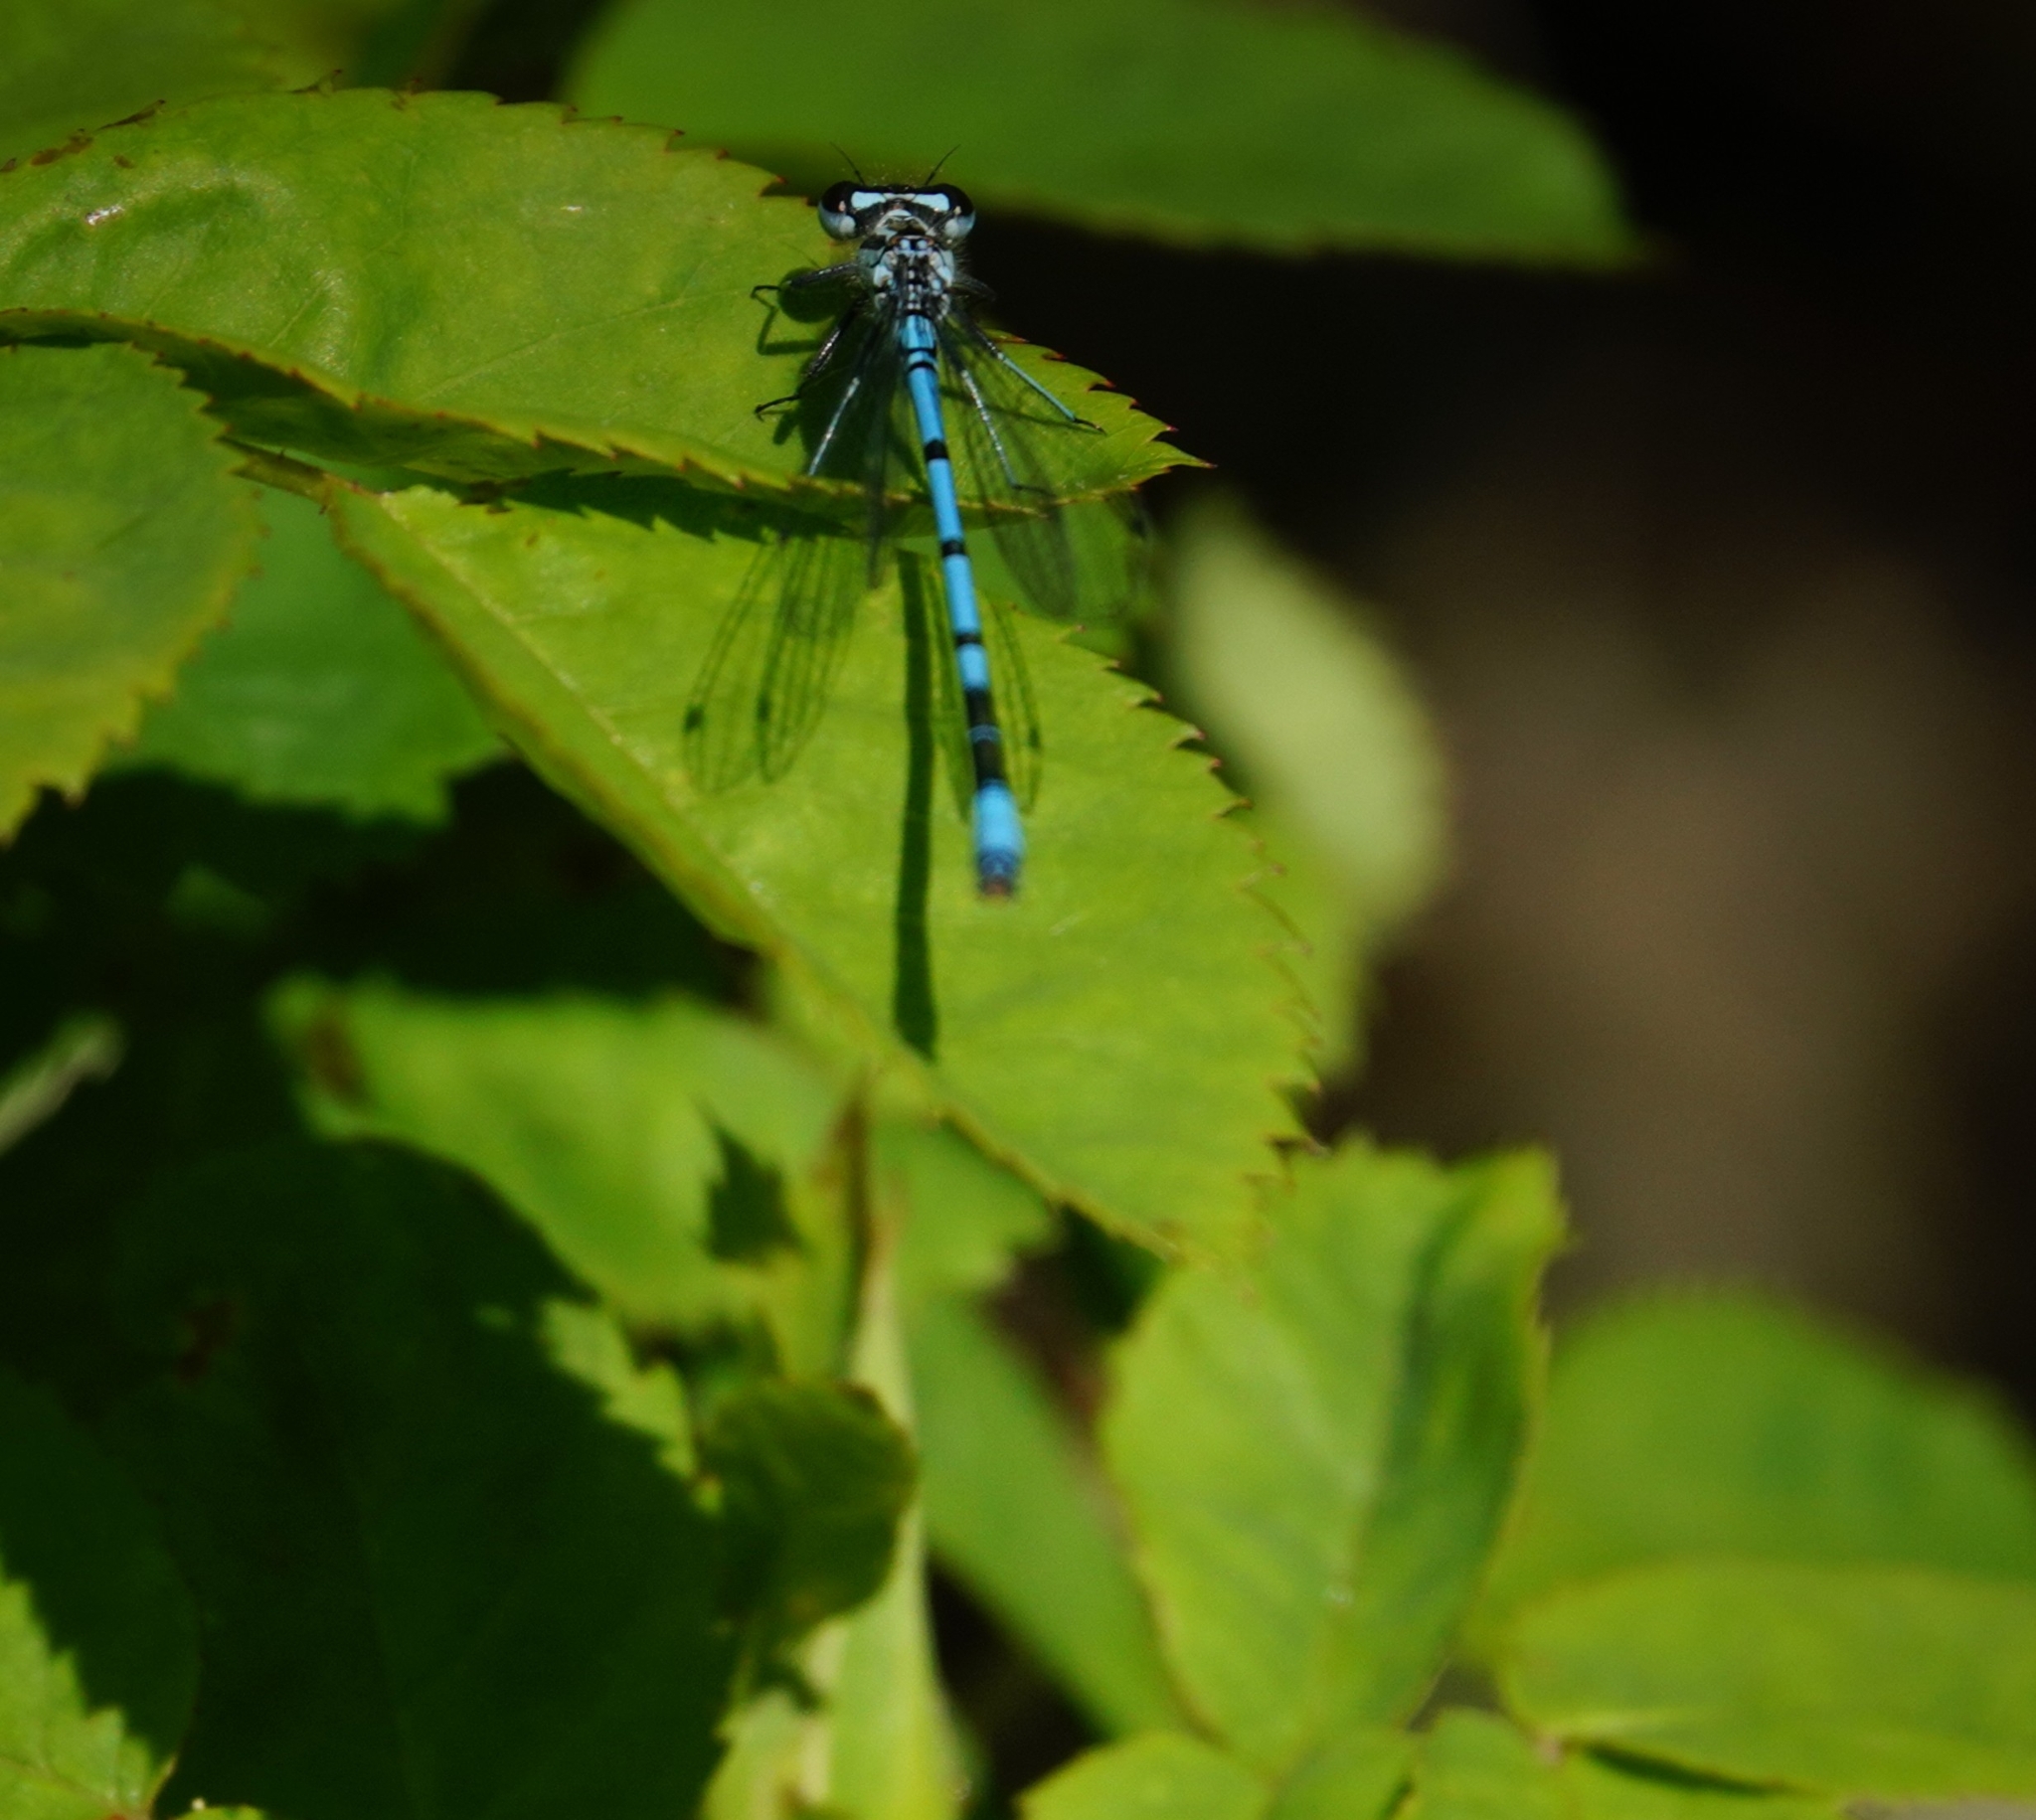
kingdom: Animalia
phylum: Arthropoda
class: Insecta
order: Odonata
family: Coenagrionidae
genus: Coenagrion
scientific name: Coenagrion puella
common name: Azure damselfly
